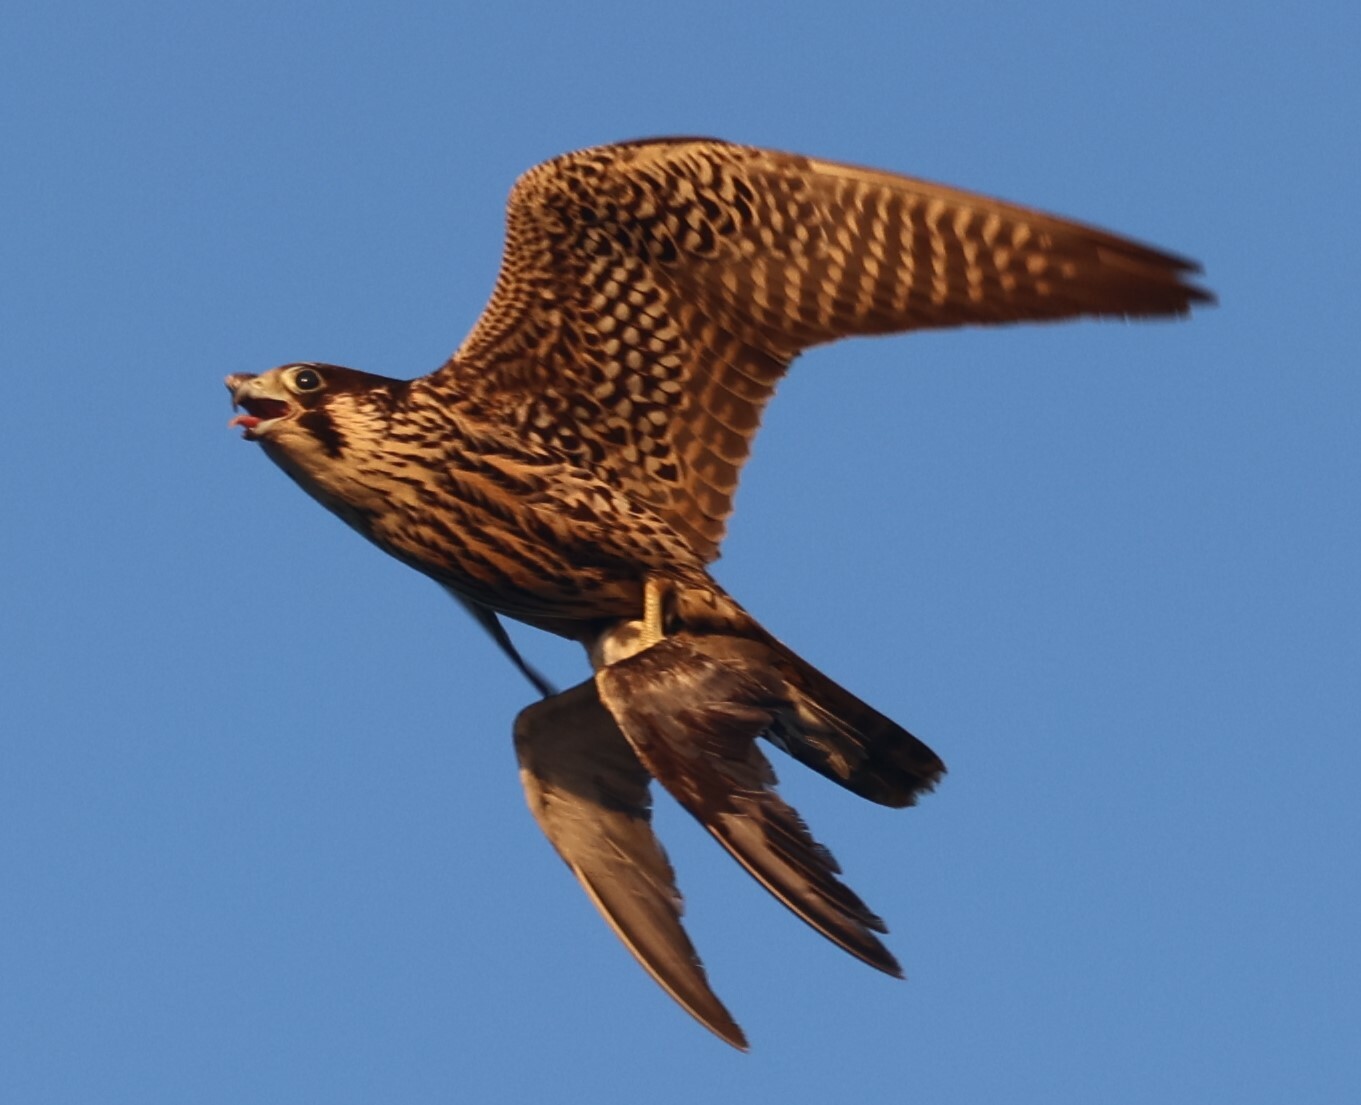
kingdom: Animalia
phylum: Chordata
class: Aves
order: Falconiformes
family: Falconidae
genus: Falco
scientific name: Falco peregrinus
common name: Peregrine falcon
